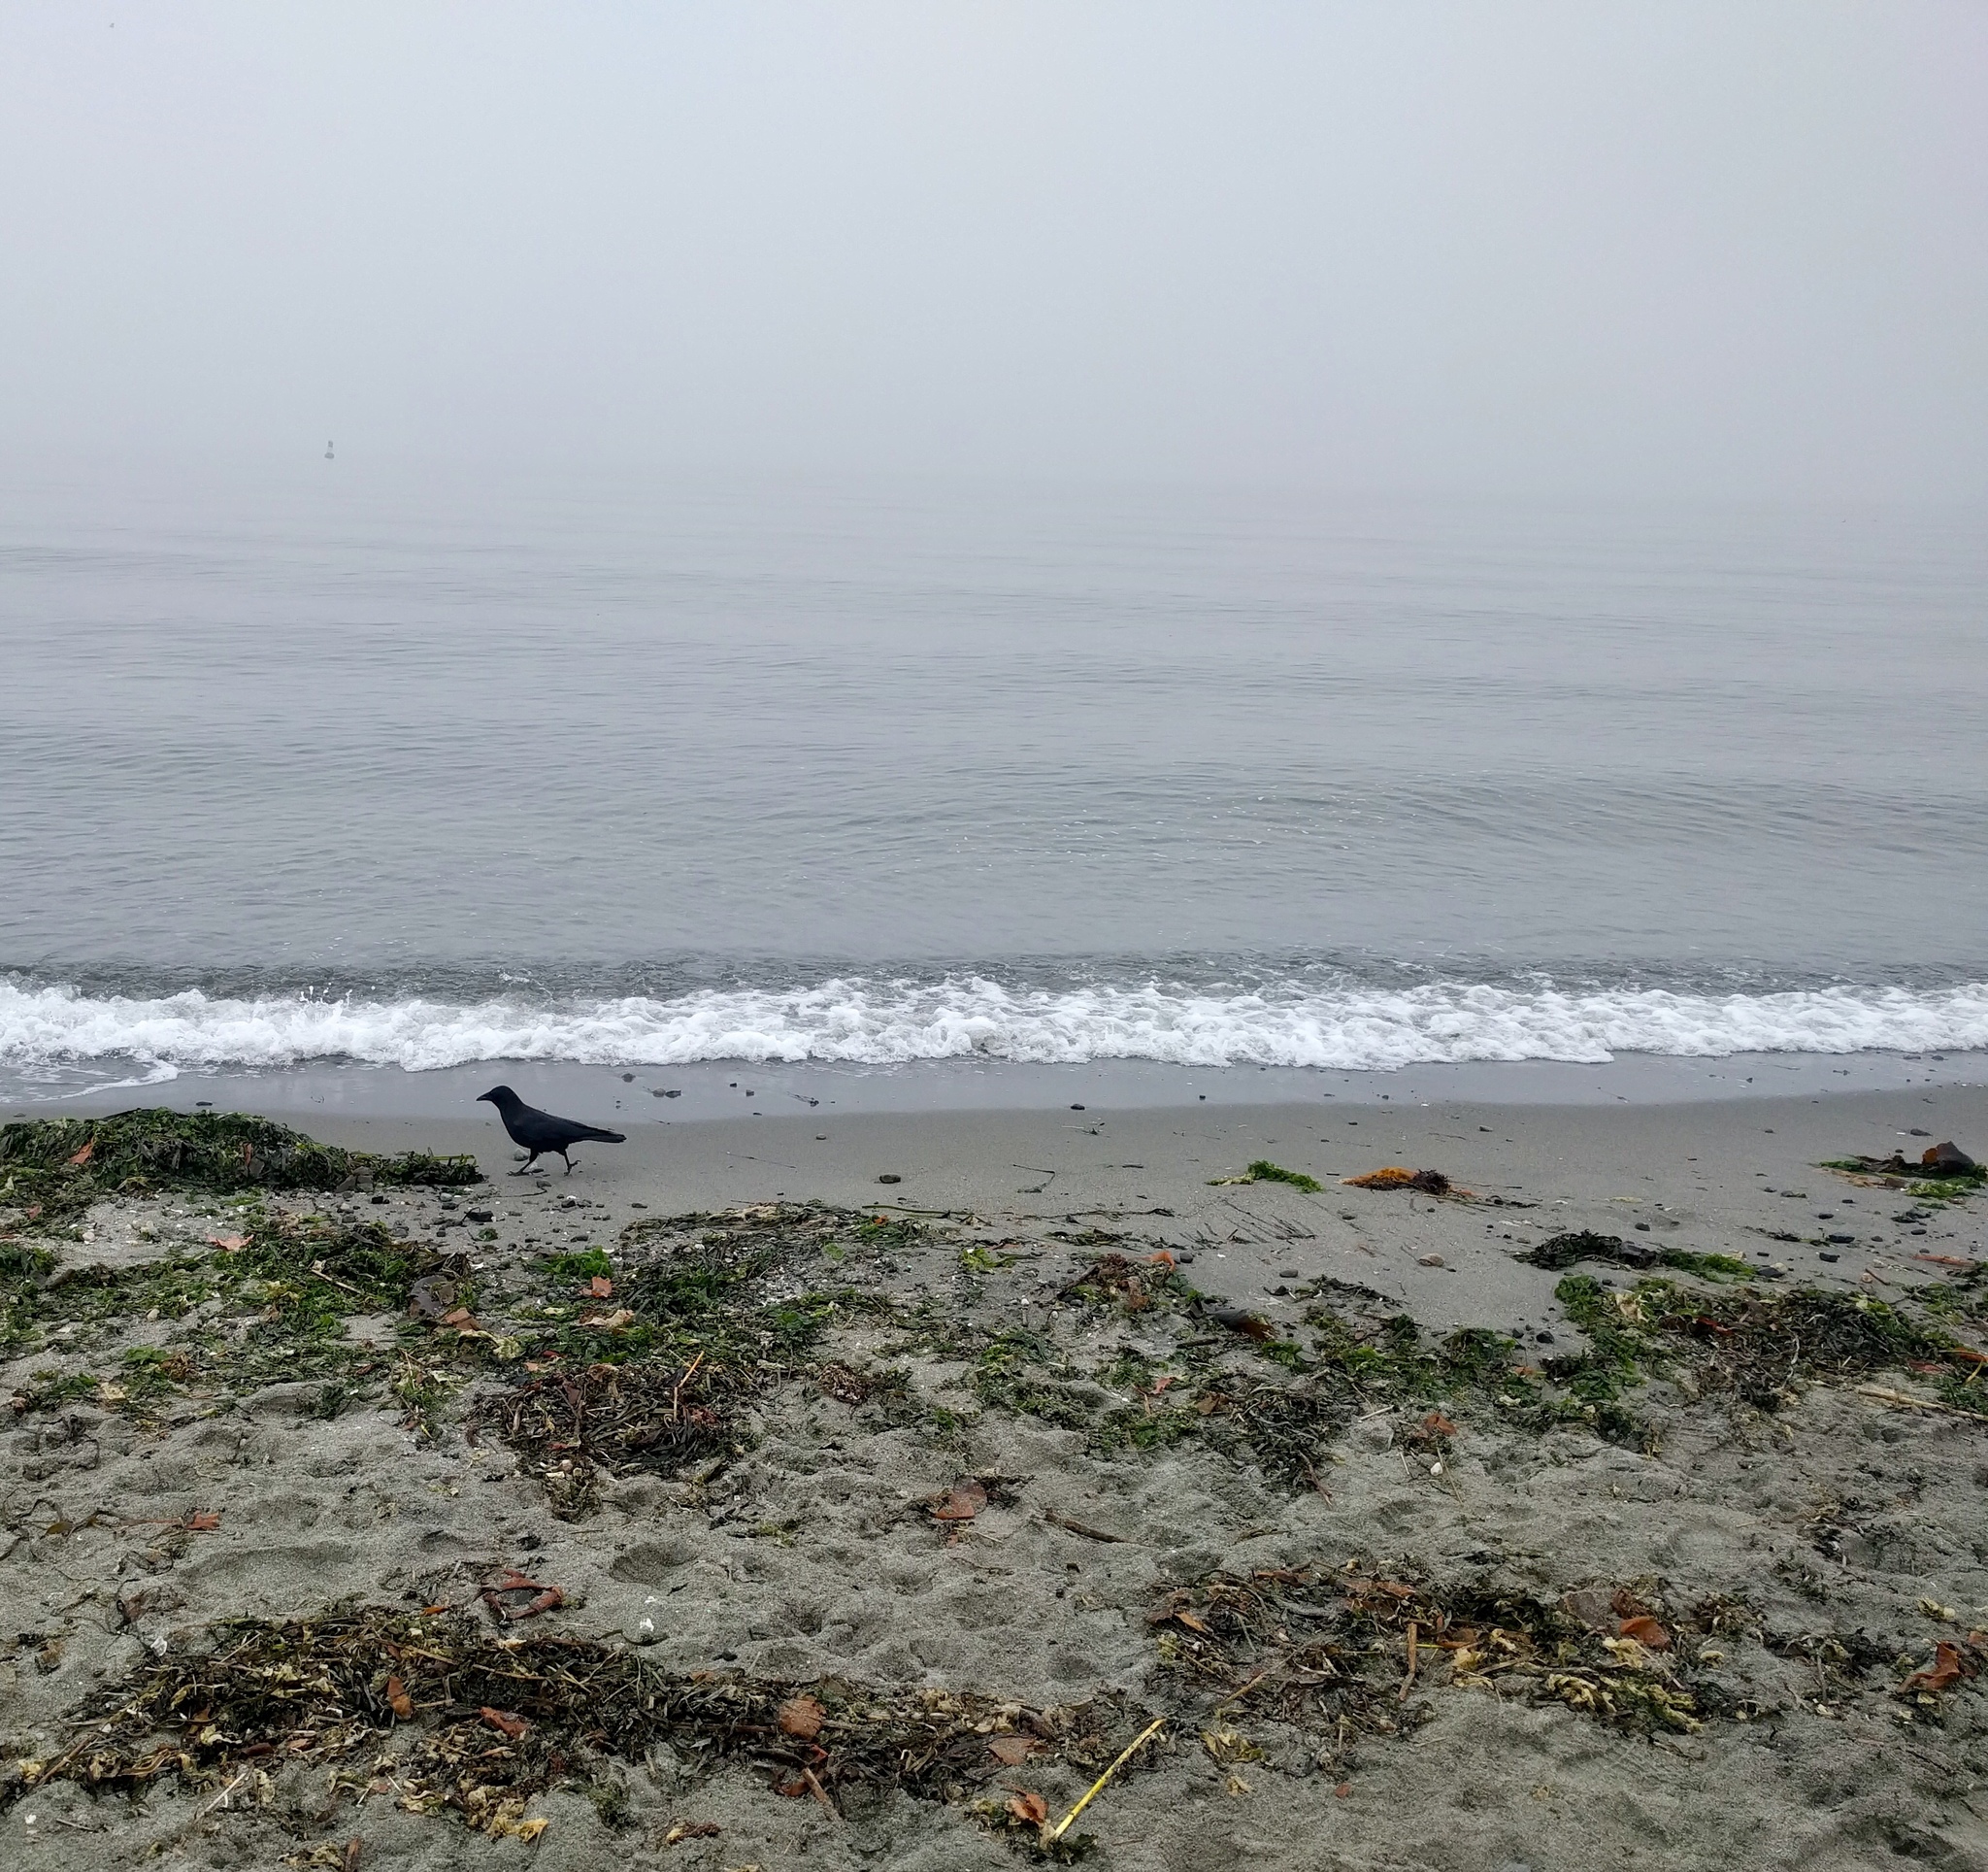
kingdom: Animalia
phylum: Chordata
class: Aves
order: Passeriformes
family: Corvidae
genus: Corvus
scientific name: Corvus brachyrhynchos
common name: American crow
